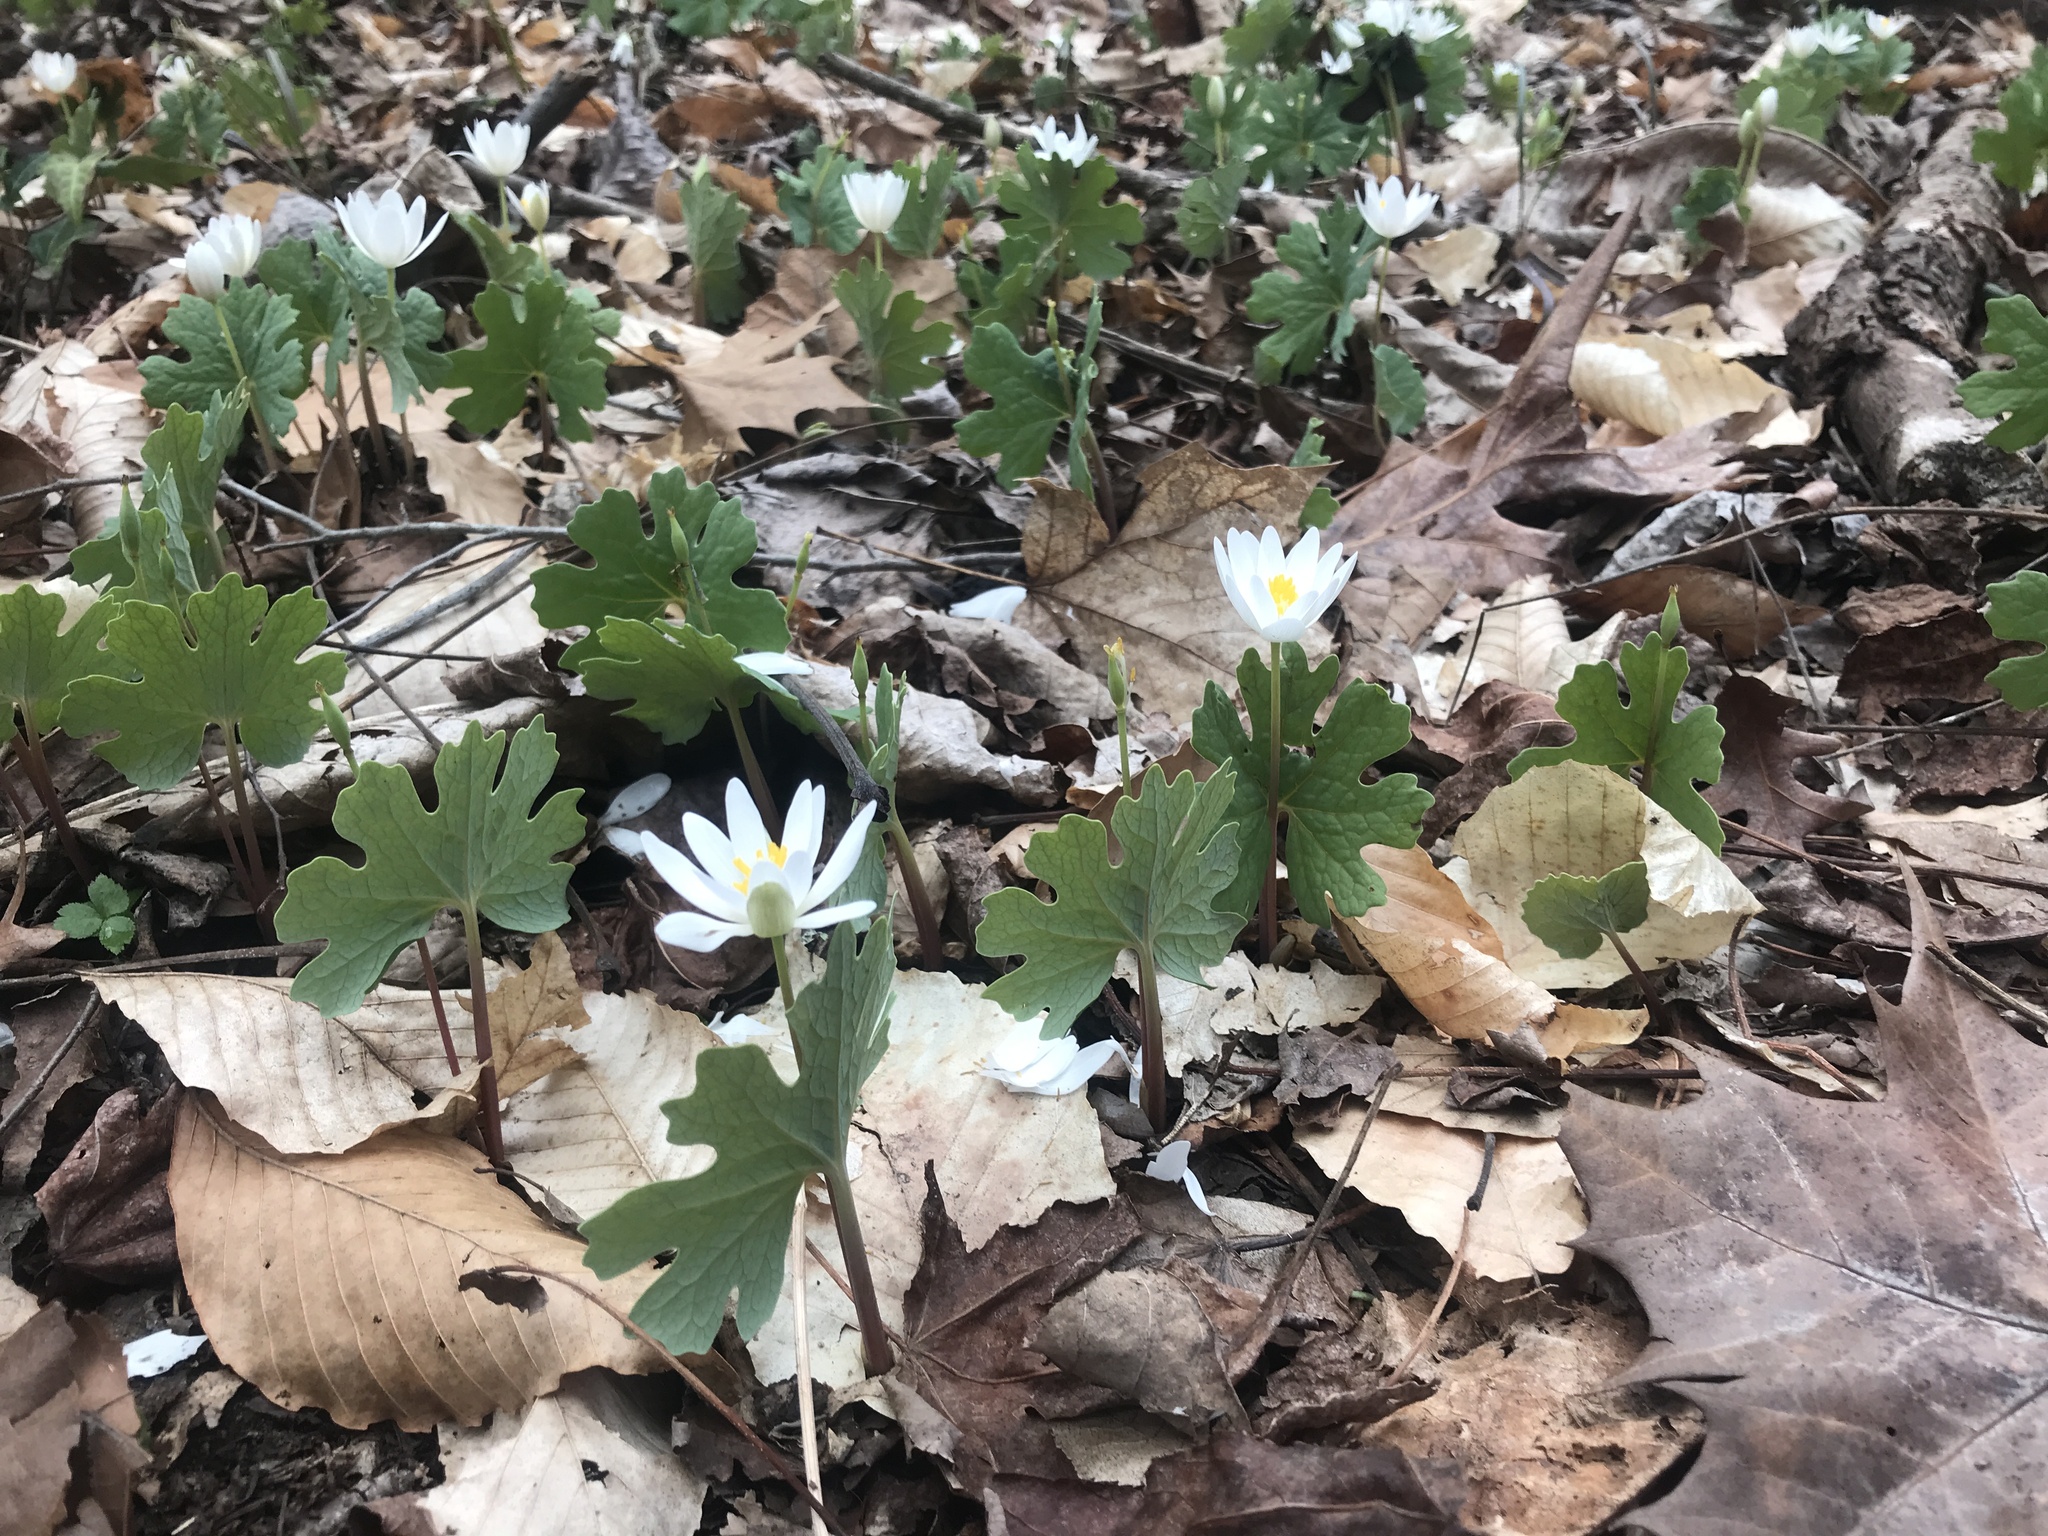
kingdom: Plantae
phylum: Tracheophyta
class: Magnoliopsida
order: Ranunculales
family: Papaveraceae
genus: Sanguinaria
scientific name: Sanguinaria canadensis
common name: Bloodroot
